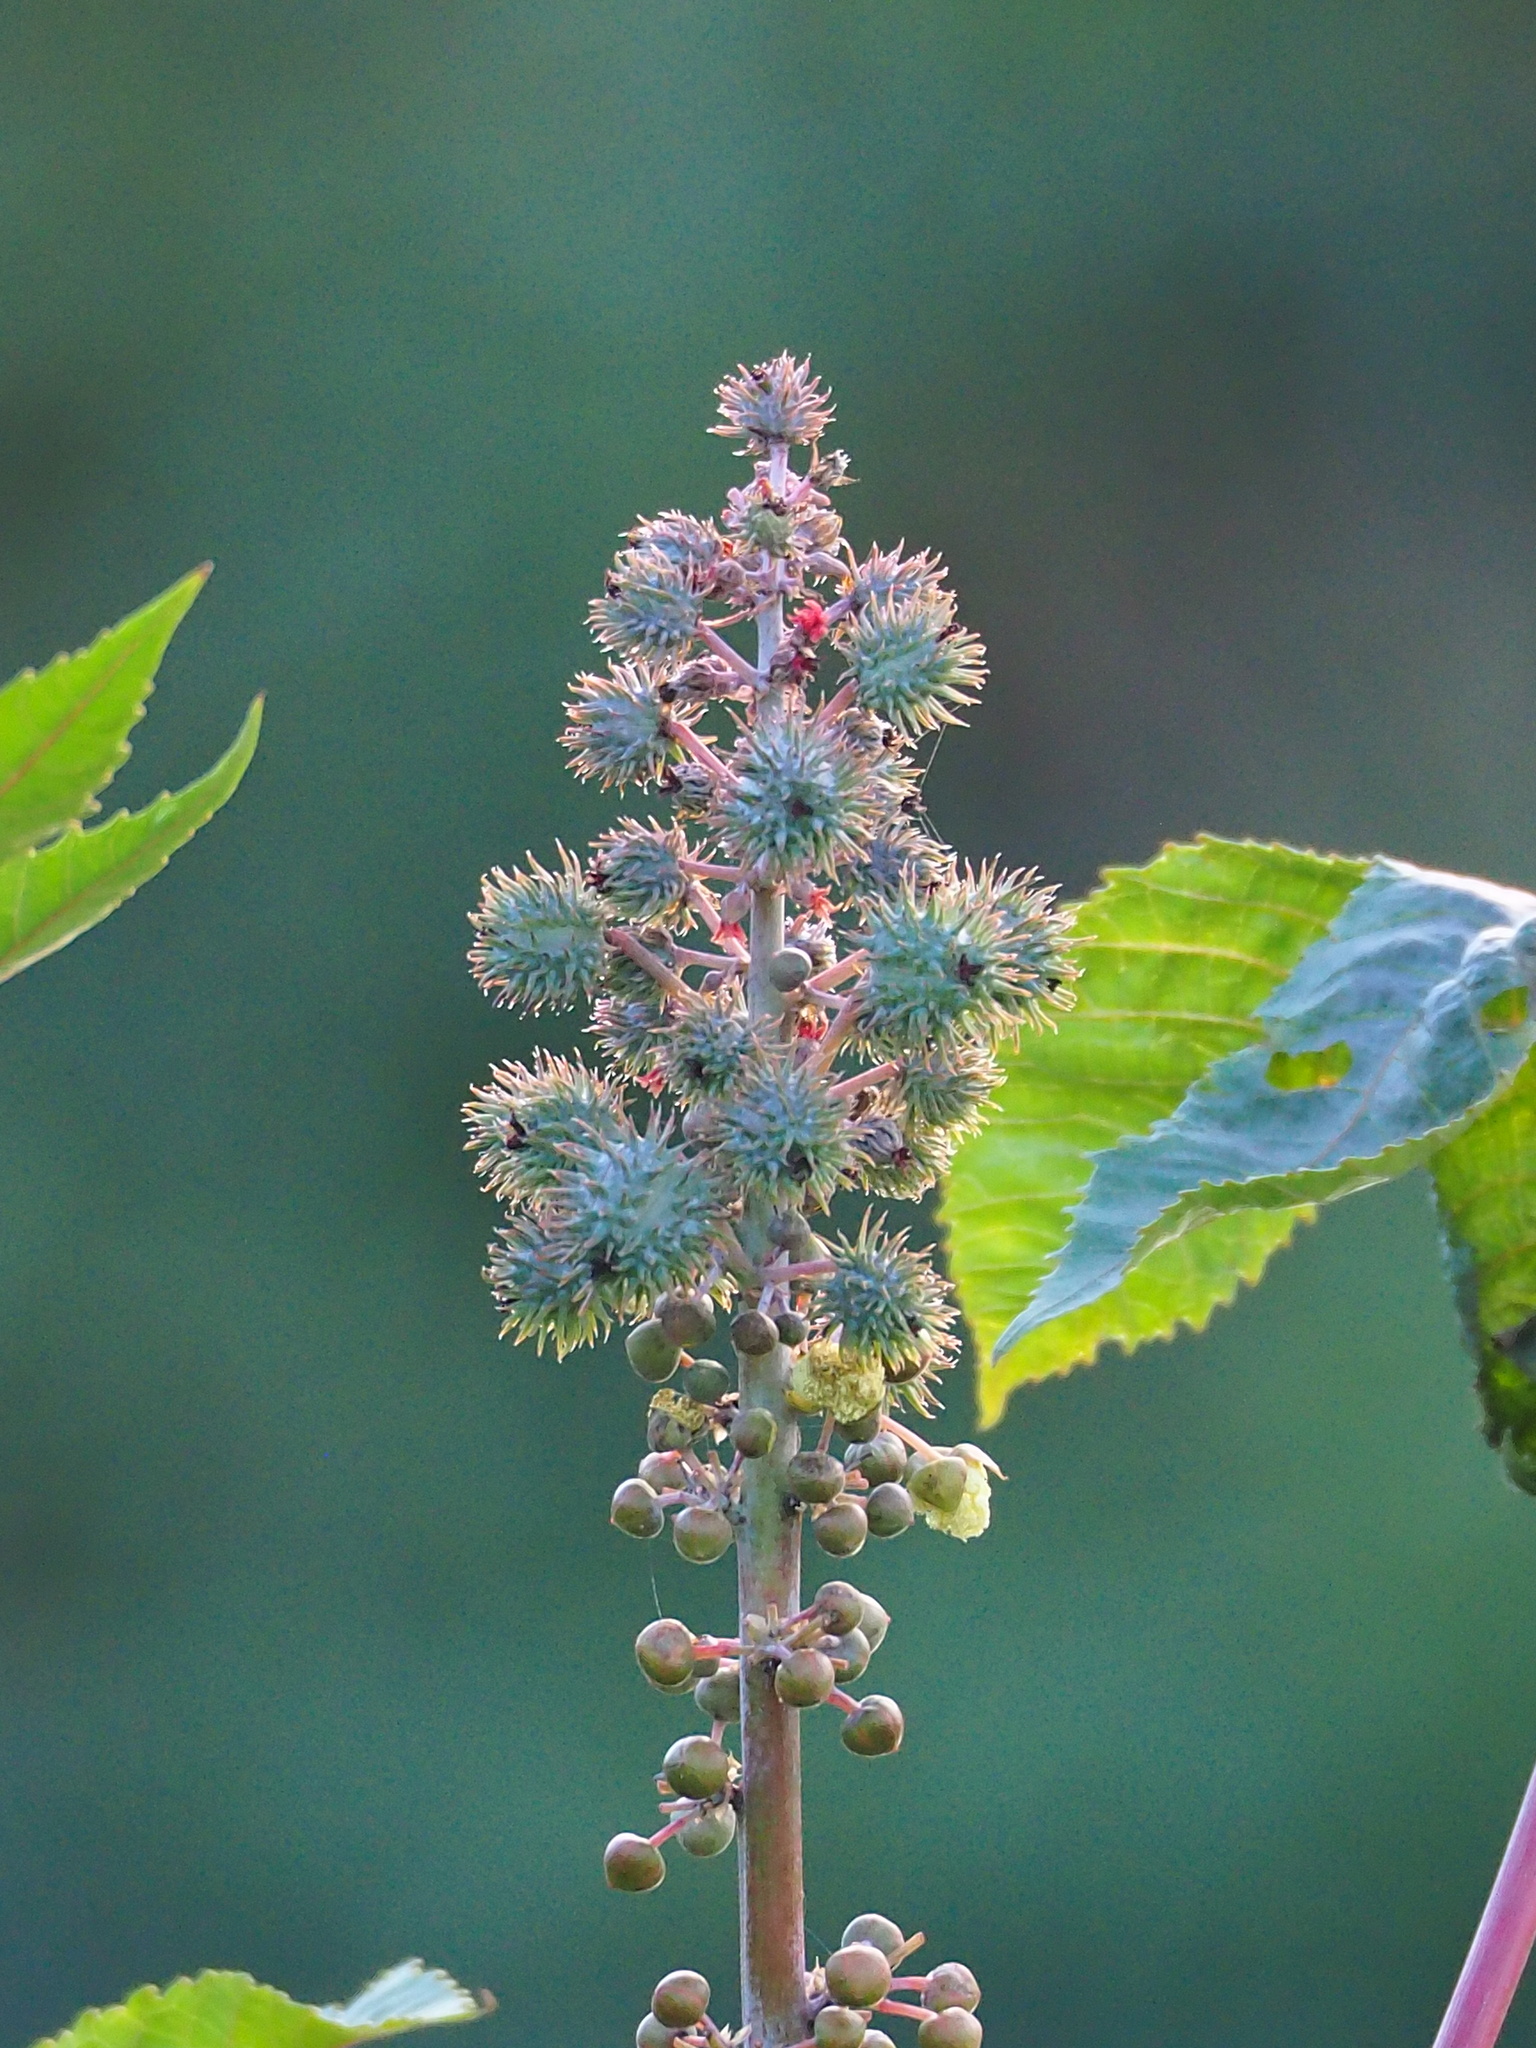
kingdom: Plantae
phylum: Tracheophyta
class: Magnoliopsida
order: Malpighiales
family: Euphorbiaceae
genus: Ricinus
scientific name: Ricinus communis
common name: Castor-oil-plant
